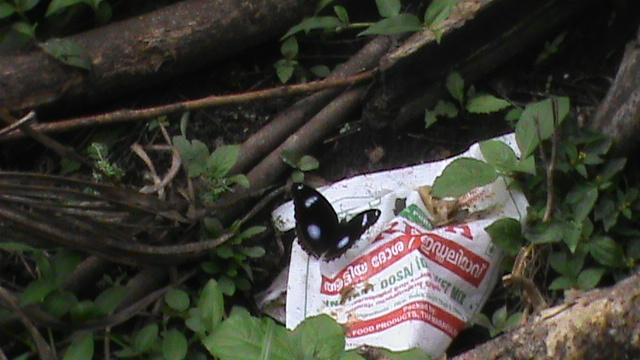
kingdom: Animalia
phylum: Arthropoda
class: Insecta
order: Lepidoptera
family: Nymphalidae
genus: Hypolimnas
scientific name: Hypolimnas bolina
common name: Great eggfly
